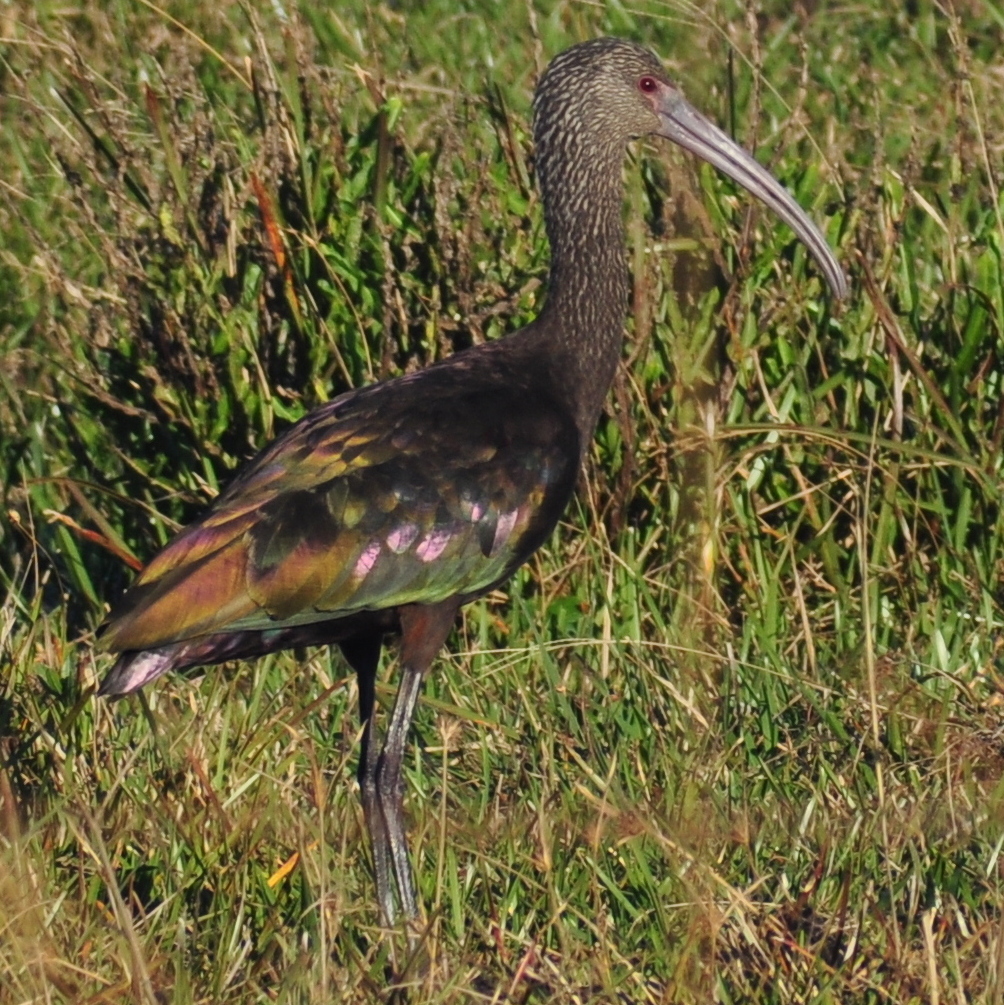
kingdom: Animalia
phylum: Chordata
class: Aves
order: Pelecaniformes
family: Threskiornithidae
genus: Plegadis
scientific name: Plegadis chihi
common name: White-faced ibis
